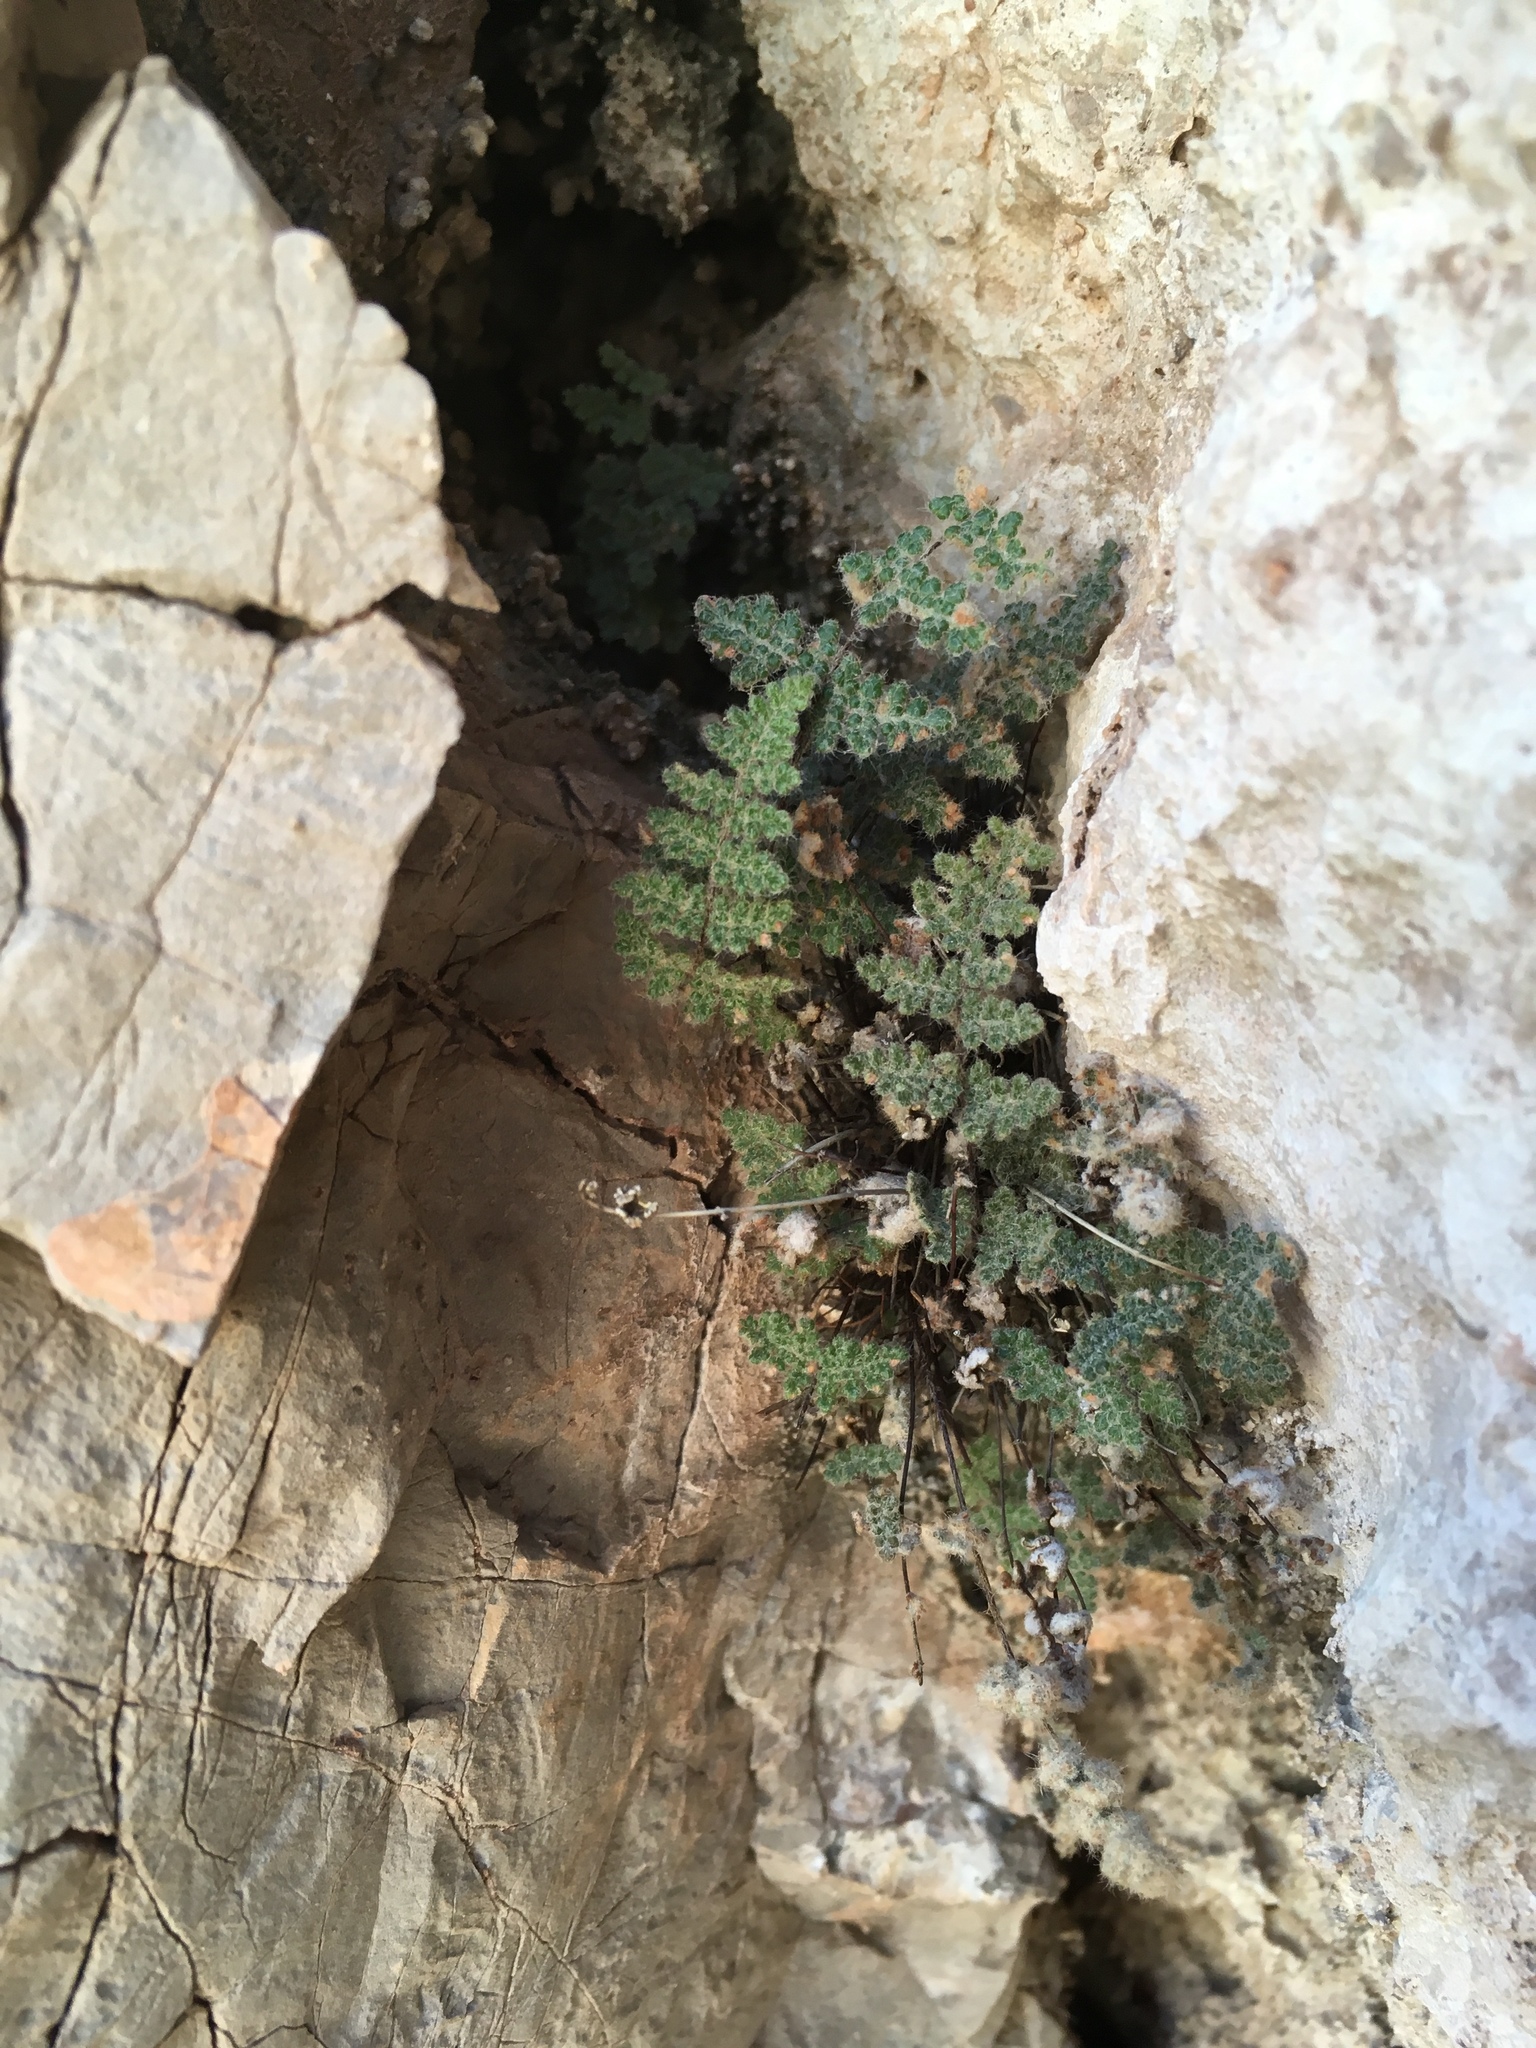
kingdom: Plantae
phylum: Tracheophyta
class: Polypodiopsida
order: Polypodiales
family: Pteridaceae
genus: Myriopteris
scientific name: Myriopteris gracilis
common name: Fee's lip fern
